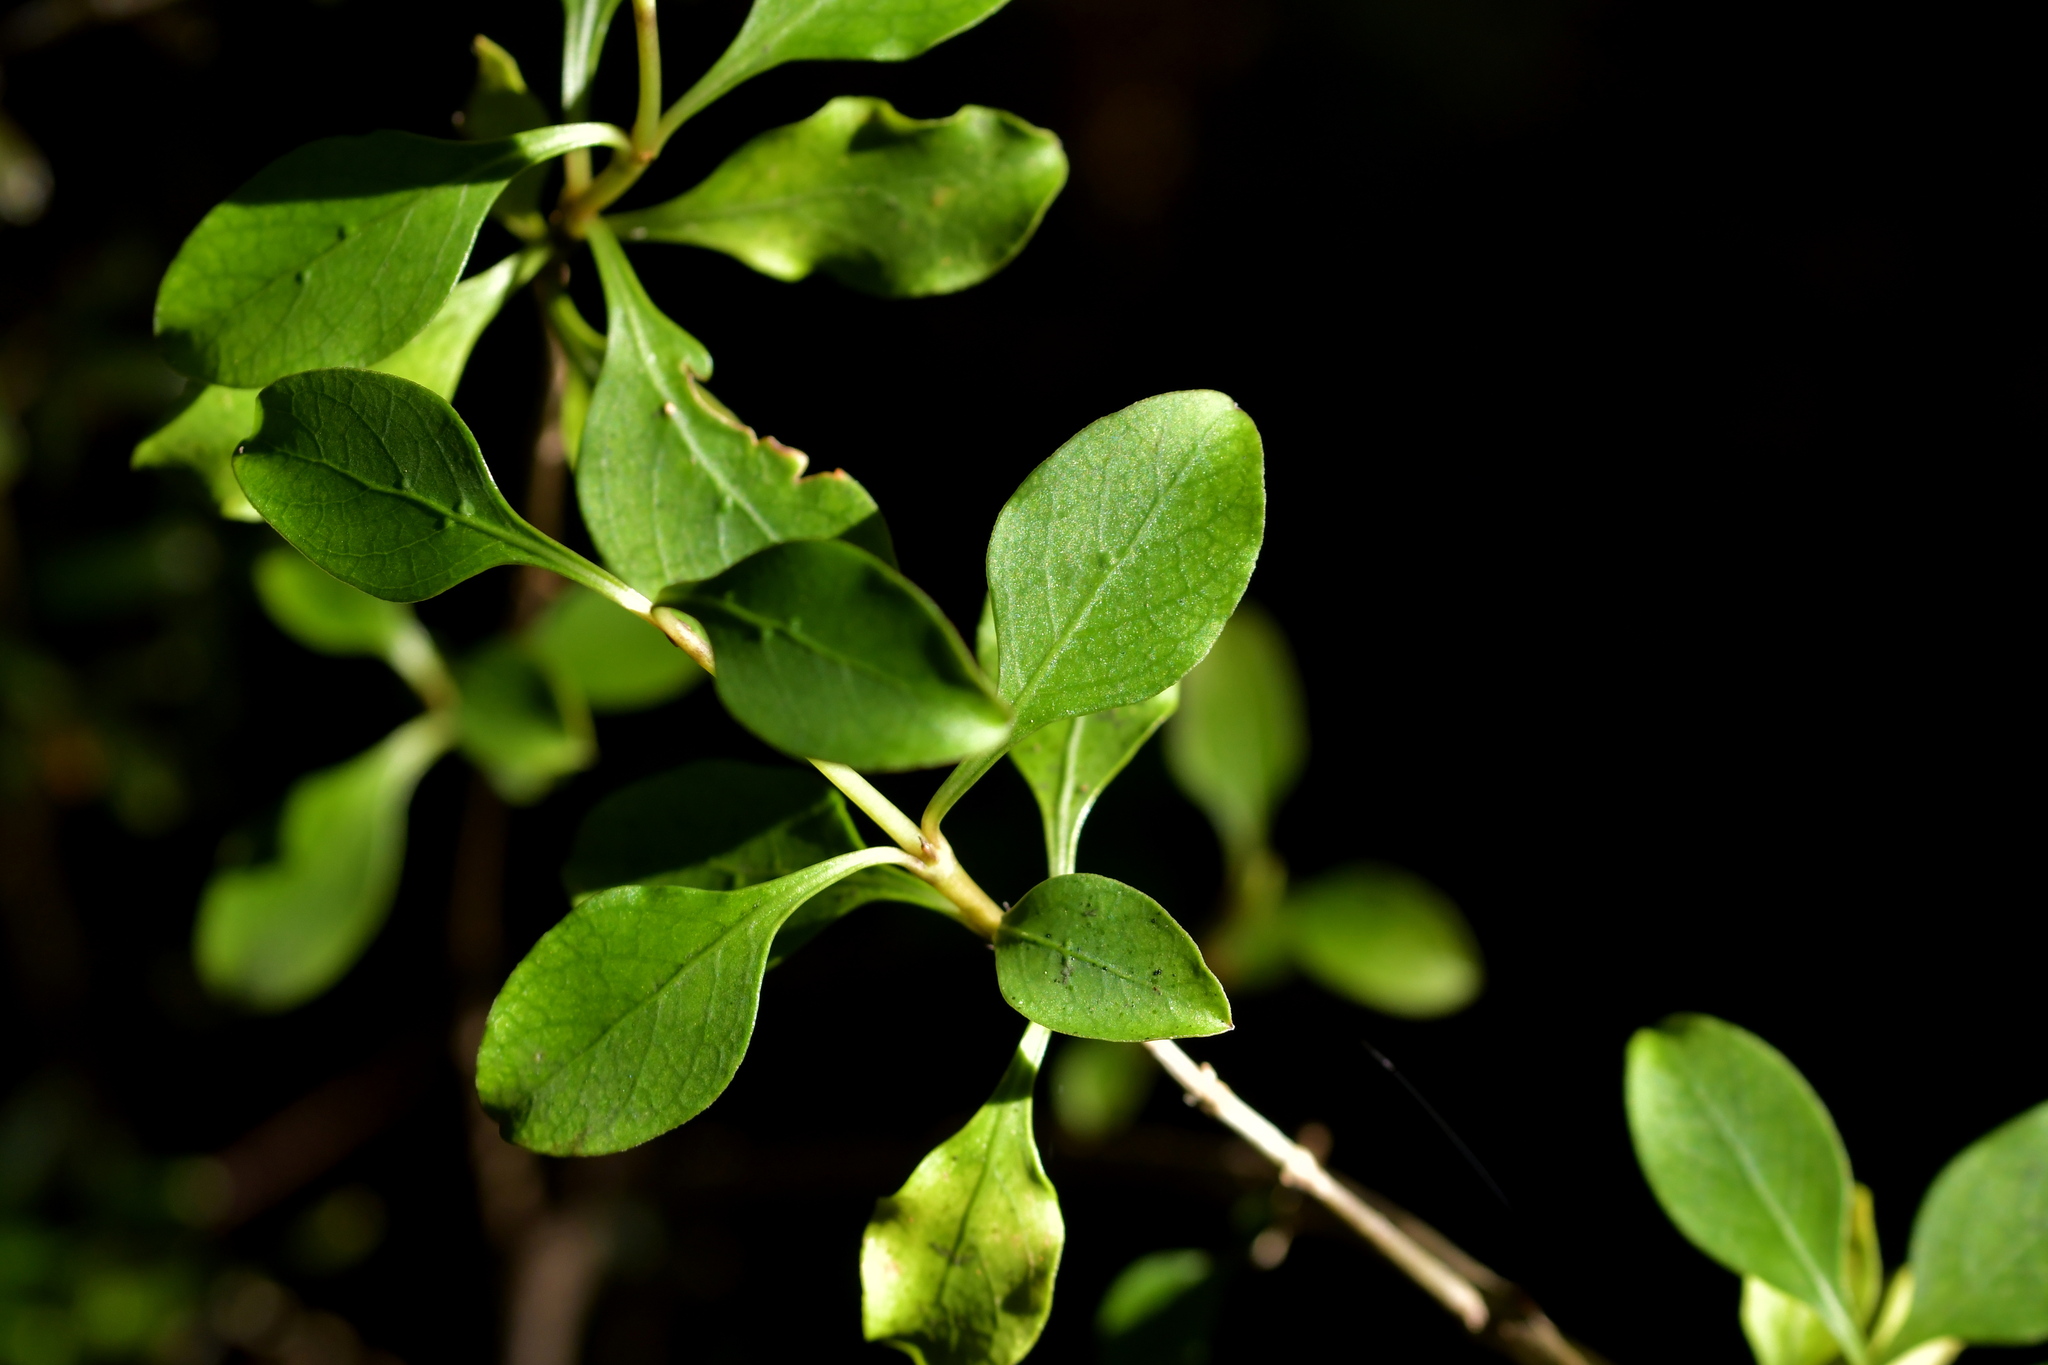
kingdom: Plantae
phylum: Tracheophyta
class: Magnoliopsida
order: Gentianales
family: Rubiaceae
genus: Coprosma
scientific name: Coprosma foetidissima
